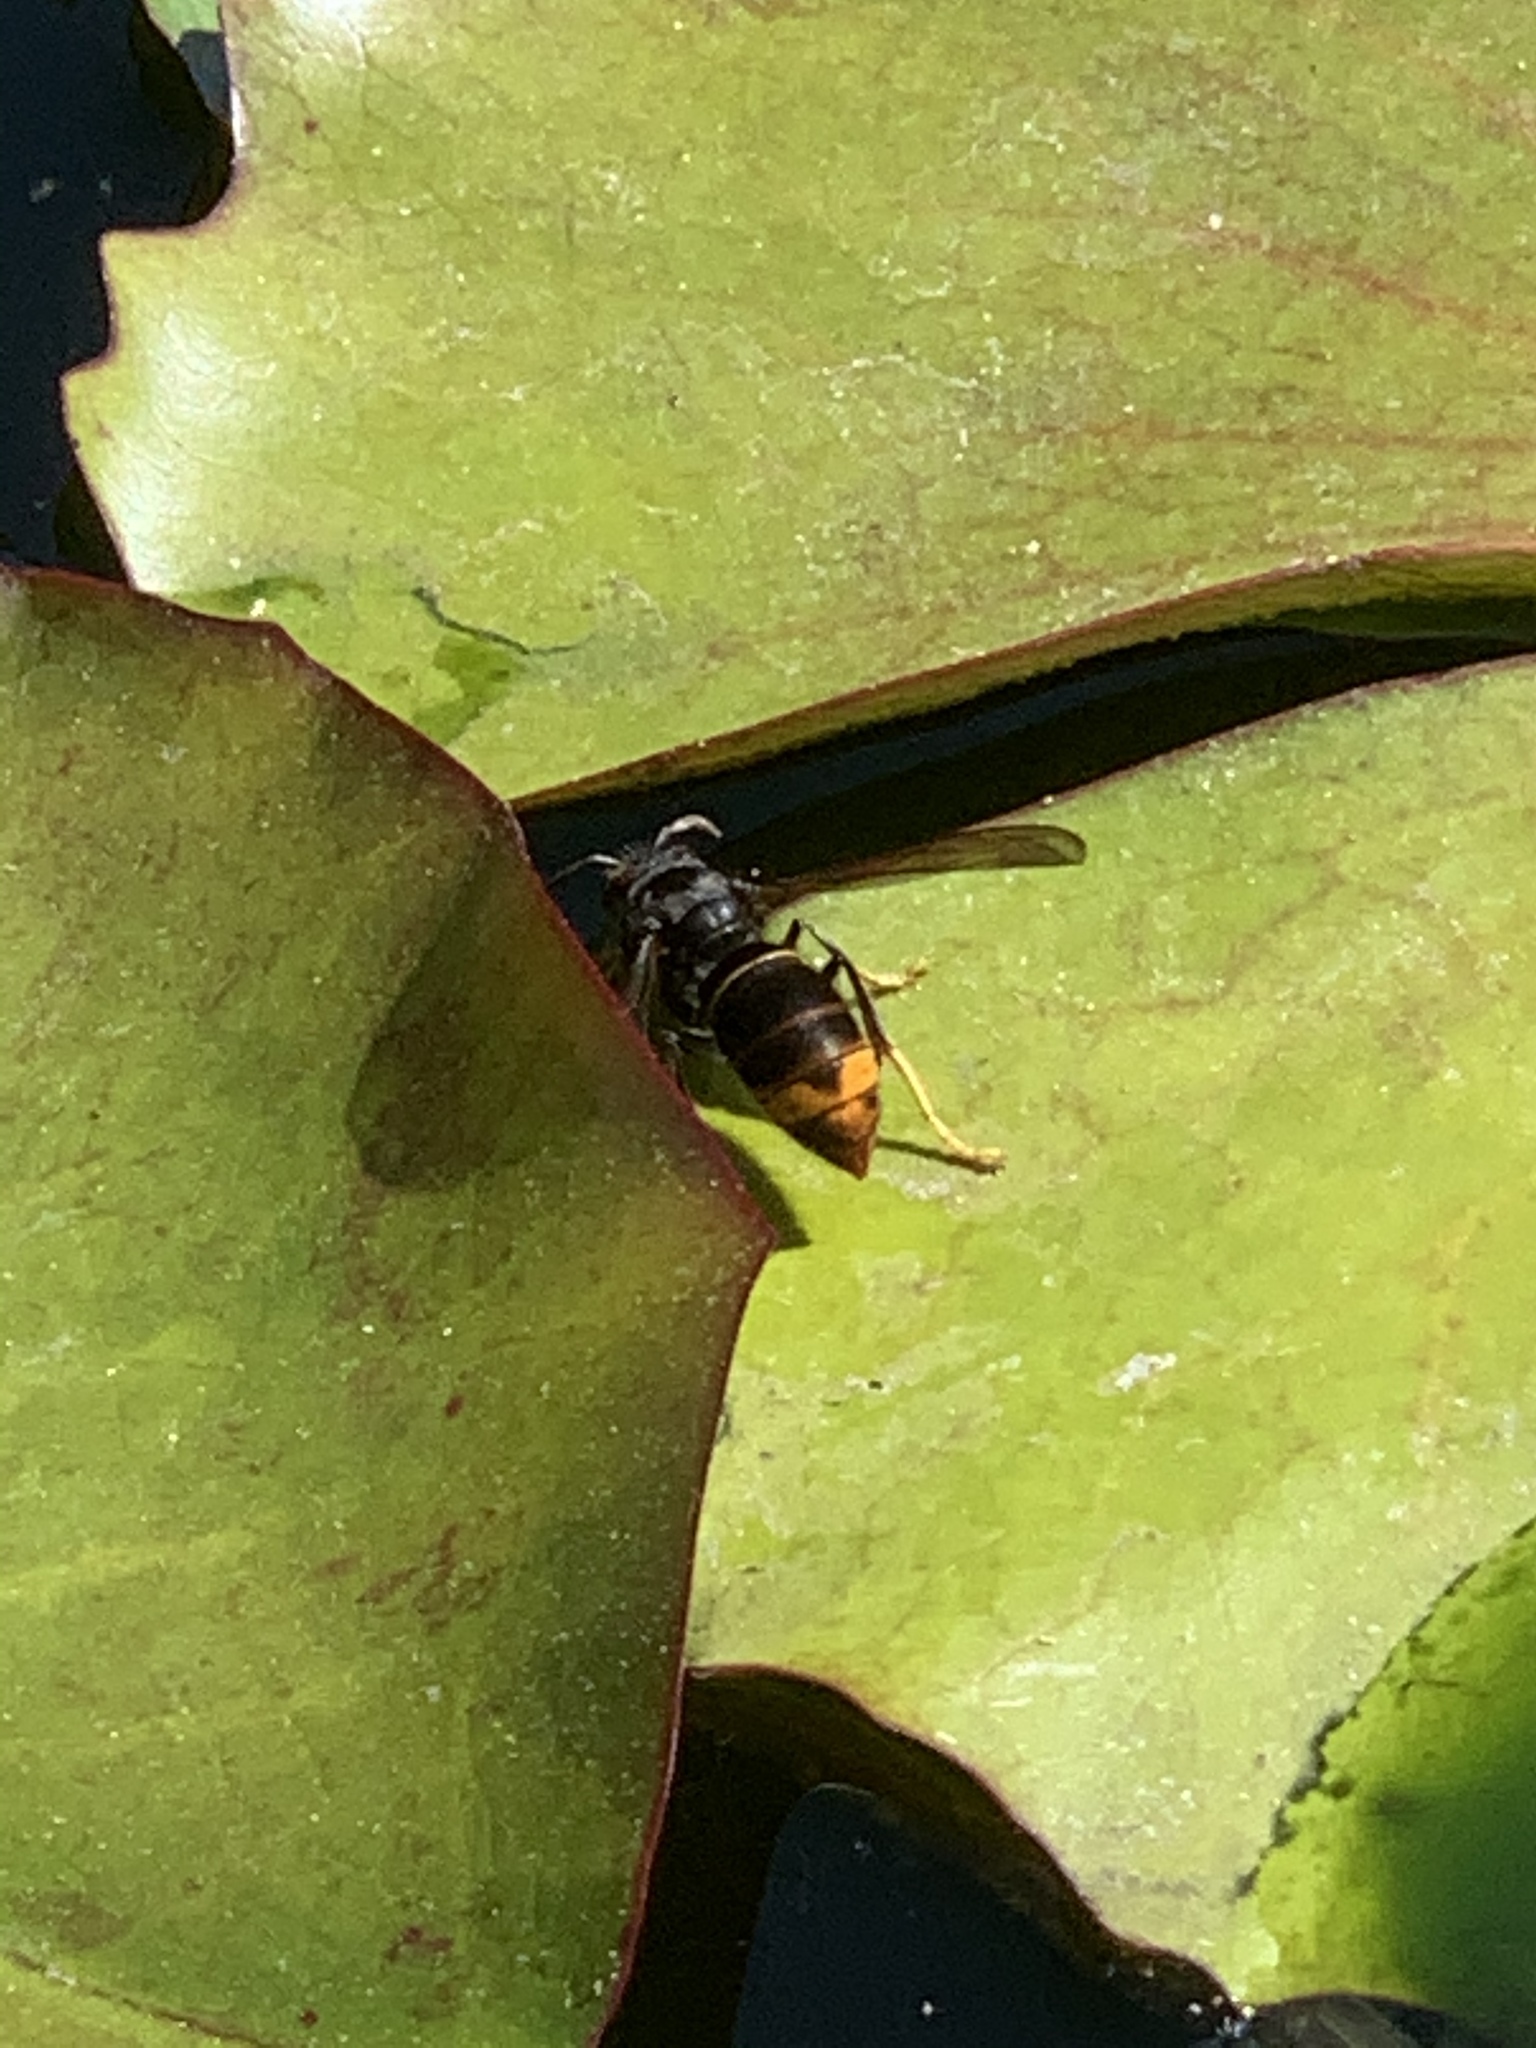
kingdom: Animalia
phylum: Arthropoda
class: Insecta
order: Hymenoptera
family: Vespidae
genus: Vespa
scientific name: Vespa velutina
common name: Asian hornet
